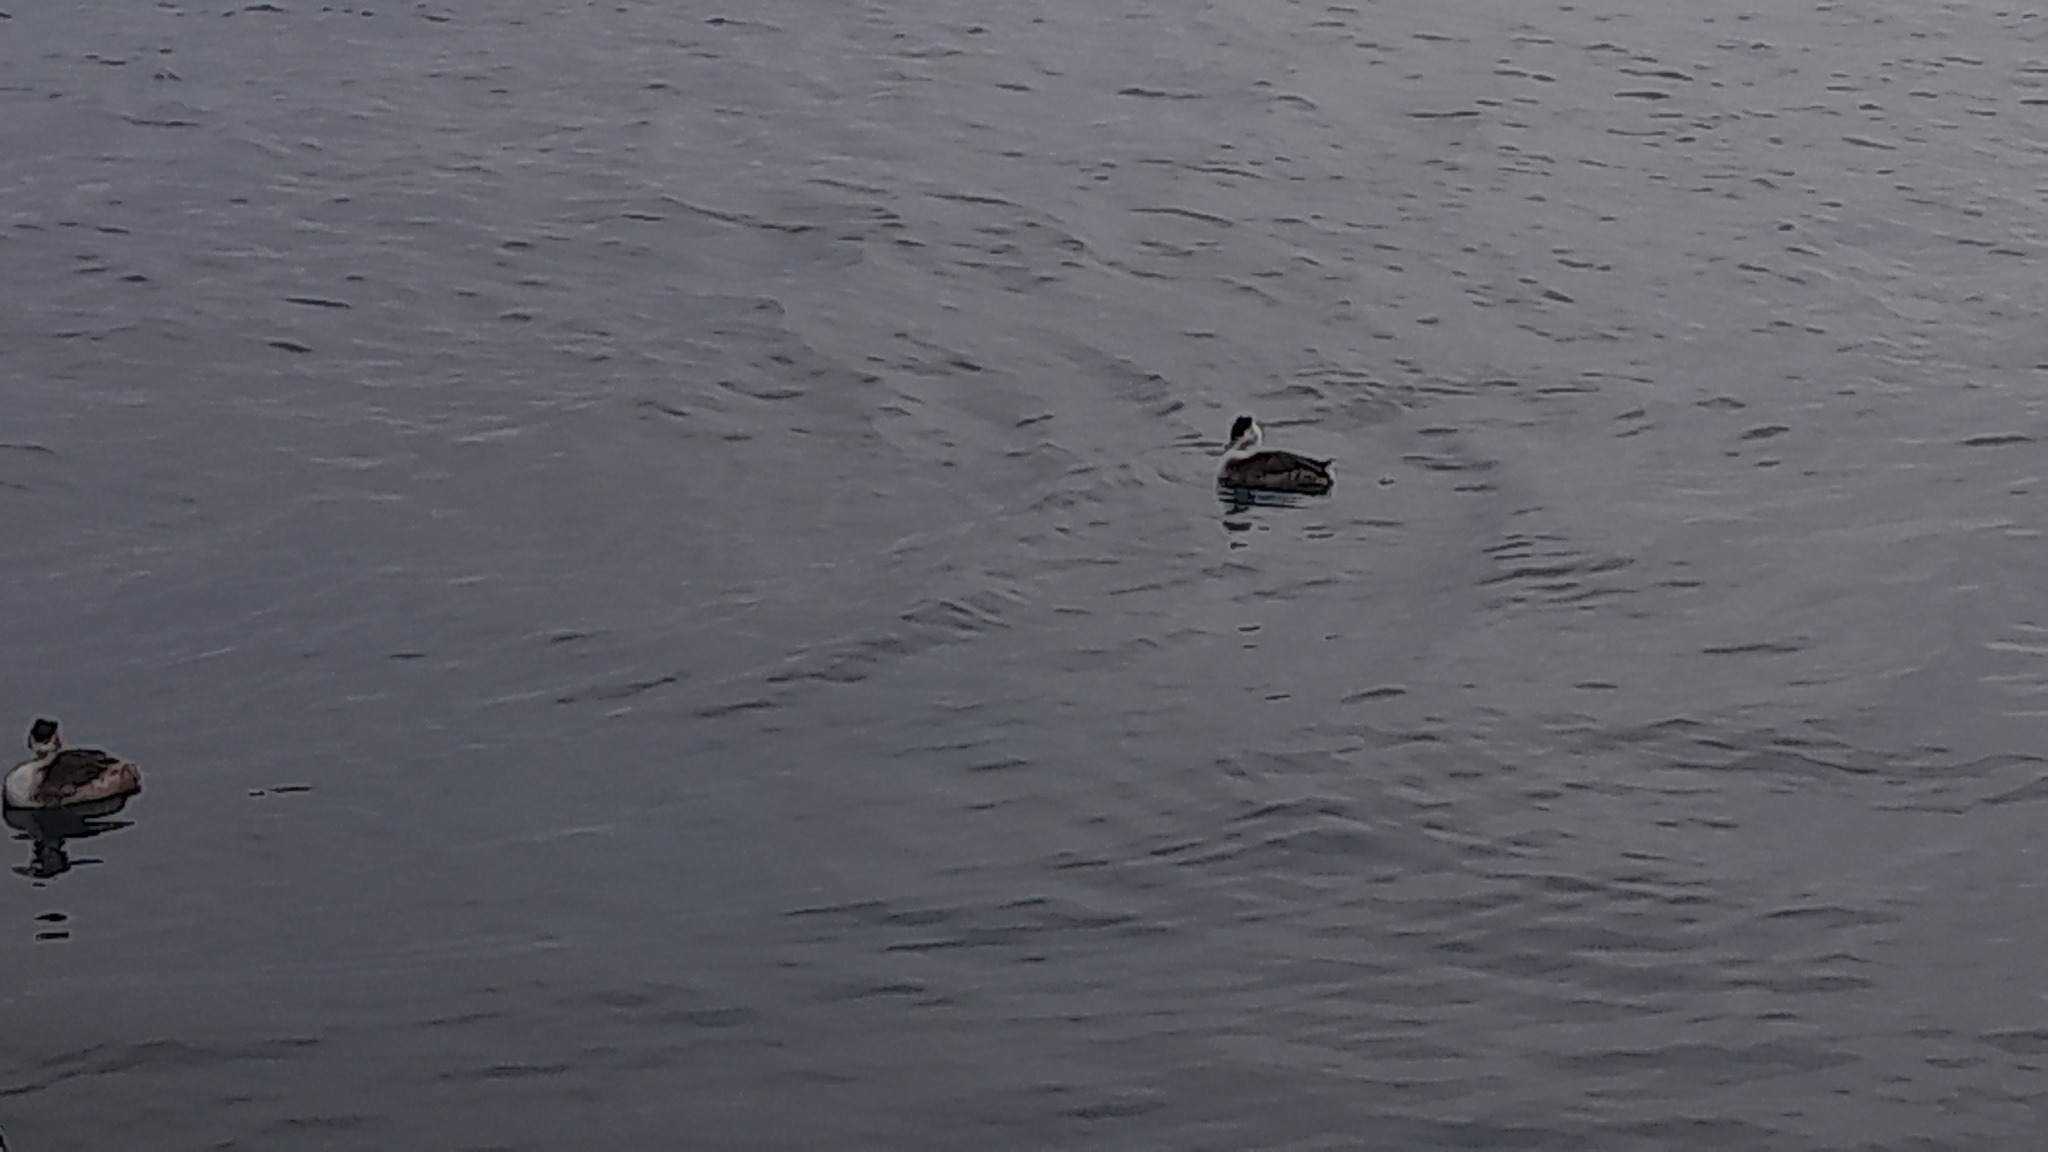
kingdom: Animalia
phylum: Chordata
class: Aves
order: Podicipediformes
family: Podicipedidae
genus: Podiceps
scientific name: Podiceps cristatus
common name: Great crested grebe
